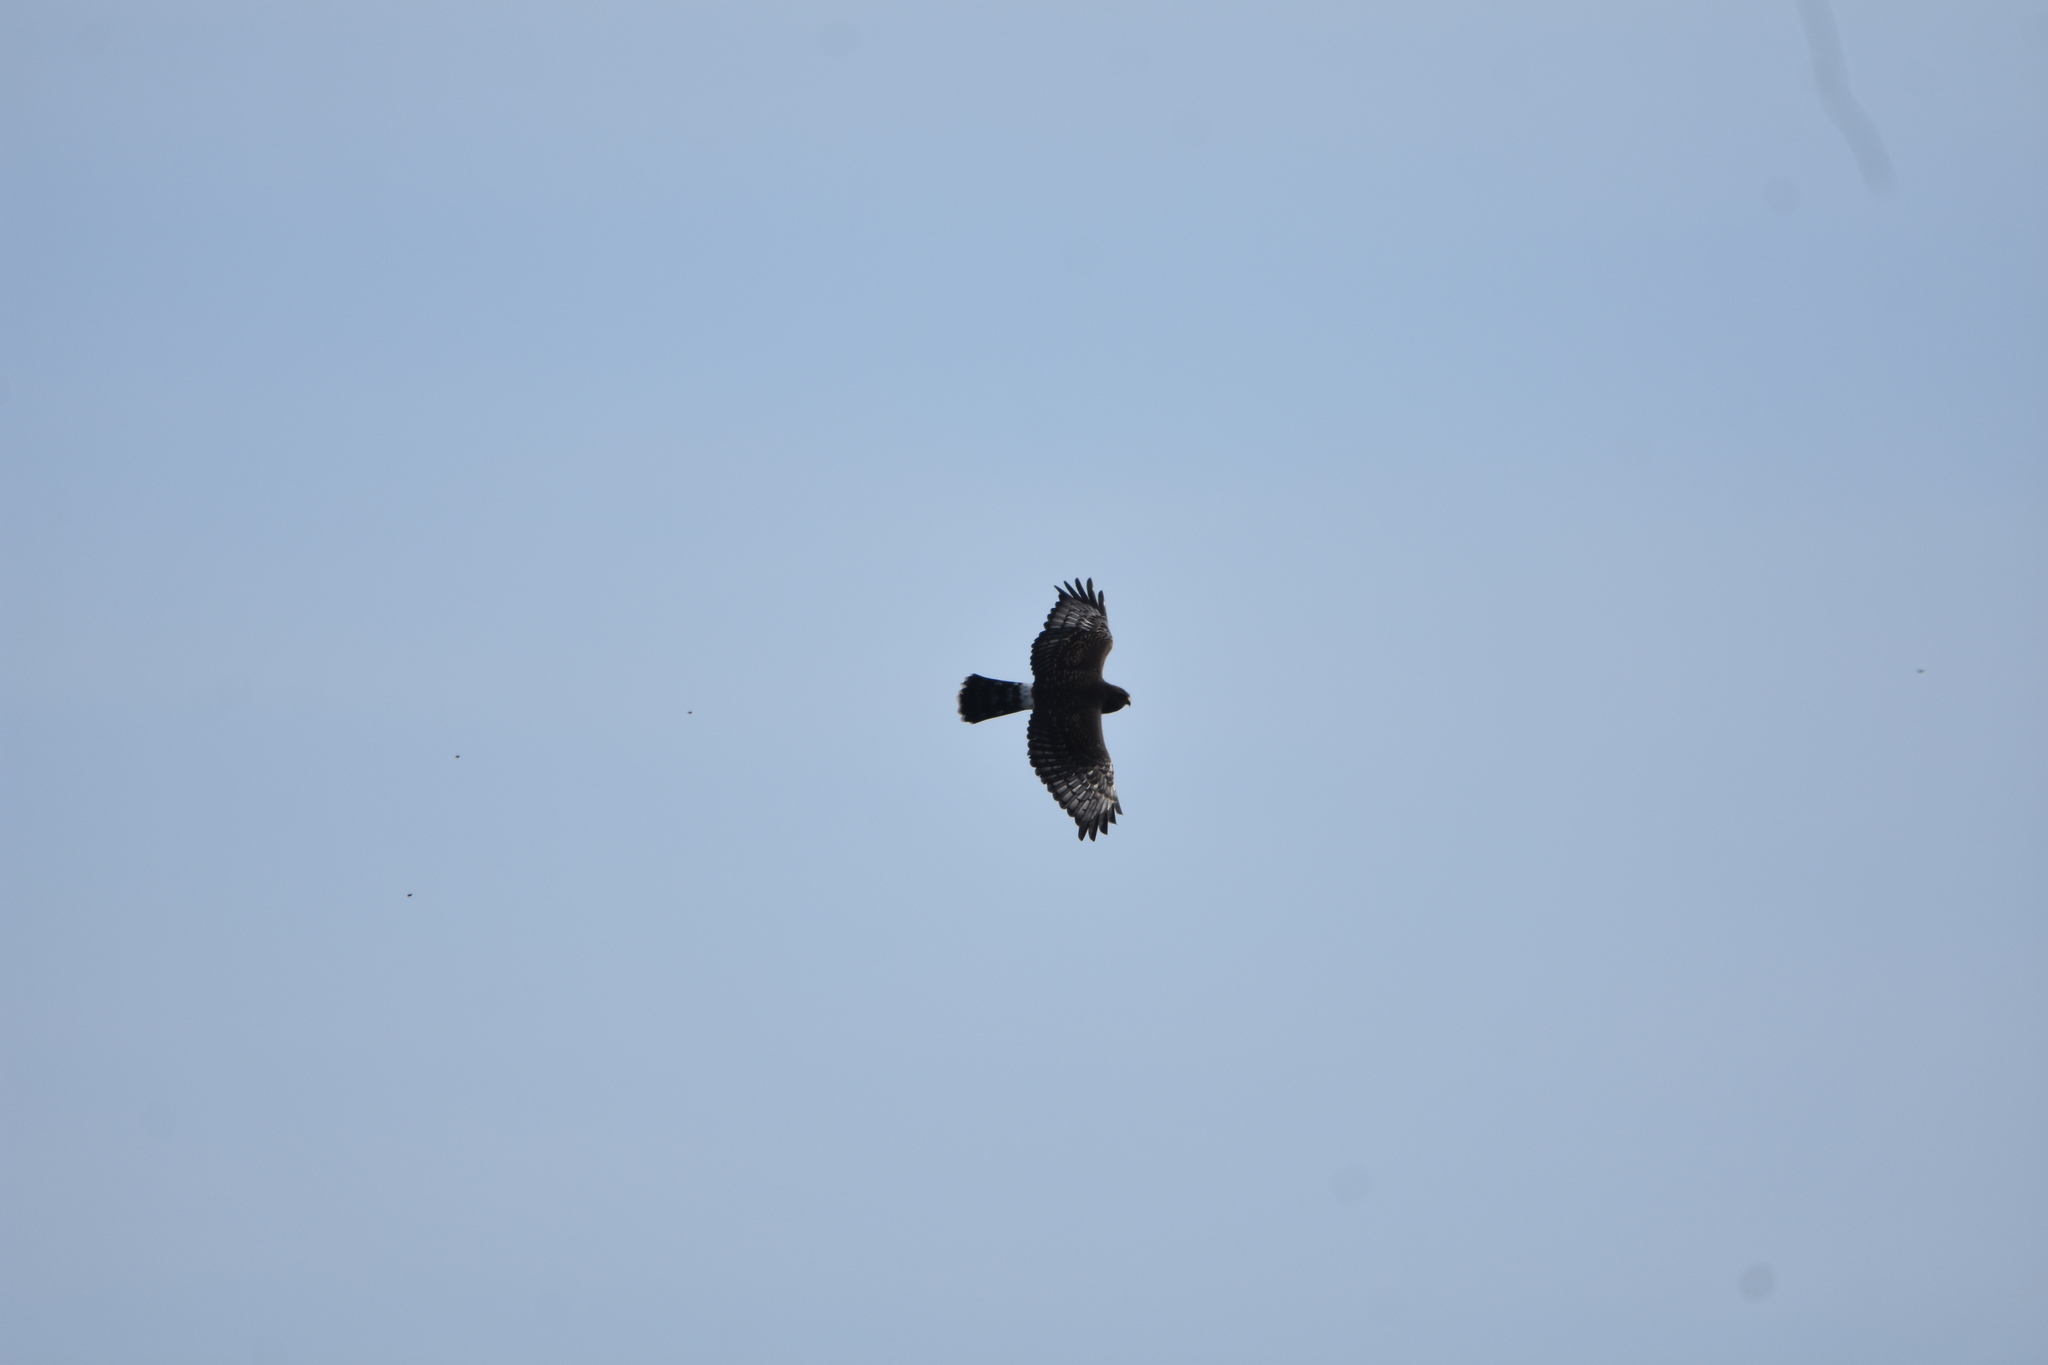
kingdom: Animalia
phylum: Chordata
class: Aves
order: Accipitriformes
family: Accipitridae
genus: Circus
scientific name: Circus maurus
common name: Black harrier
